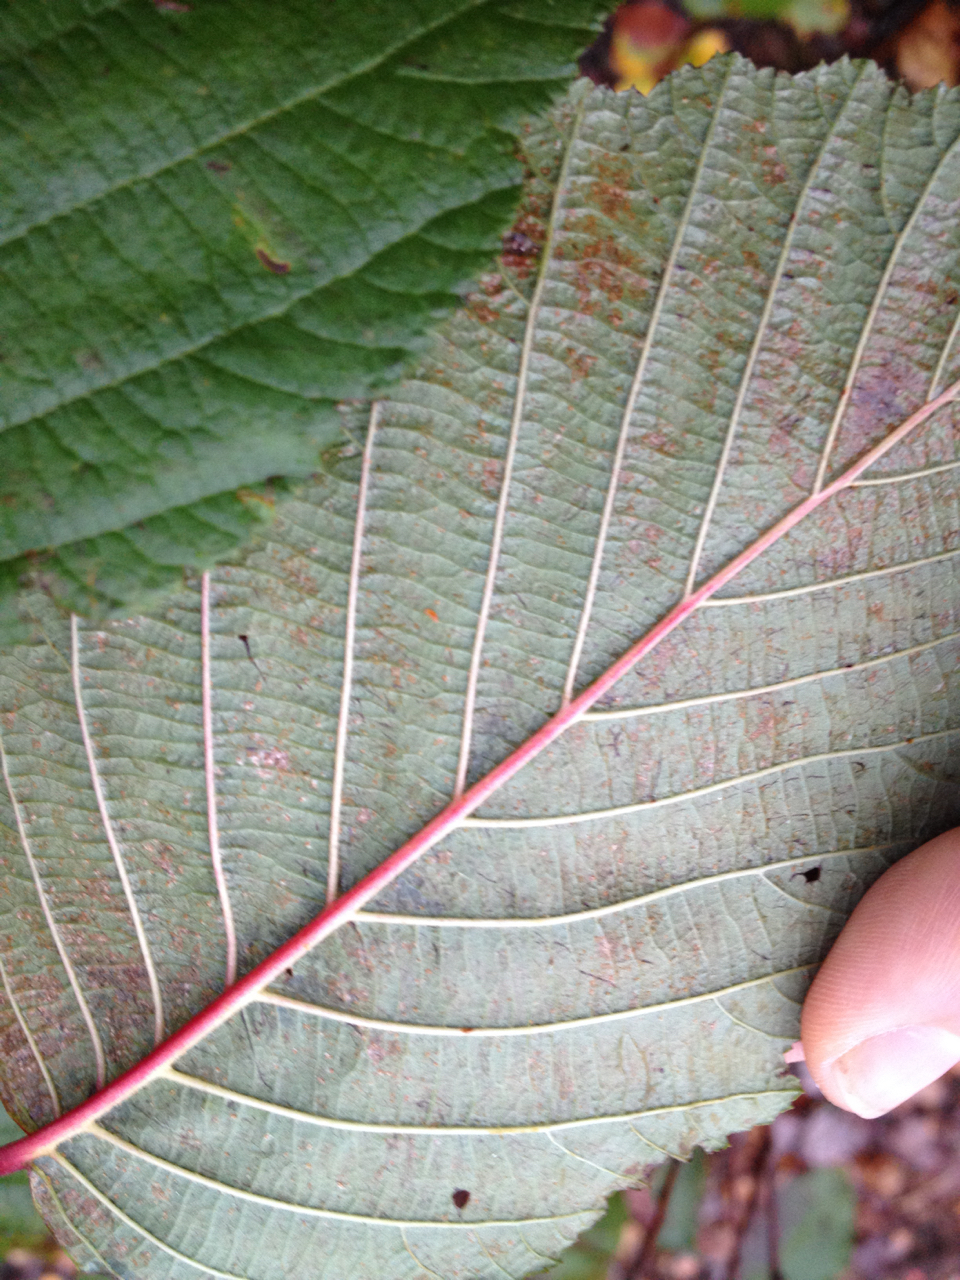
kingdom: Plantae
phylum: Tracheophyta
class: Magnoliopsida
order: Fagales
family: Betulaceae
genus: Alnus
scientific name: Alnus incana
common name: Grey alder
